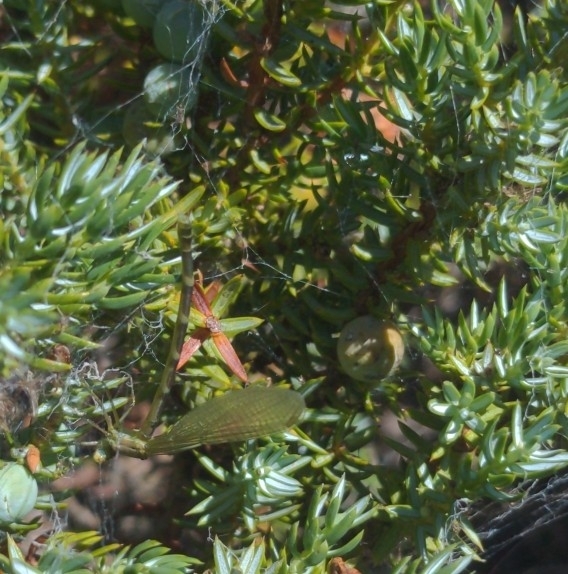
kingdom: Plantae
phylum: Tracheophyta
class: Pinopsida
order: Pinales
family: Cupressaceae
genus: Juniperus
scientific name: Juniperus communis
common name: Common juniper
